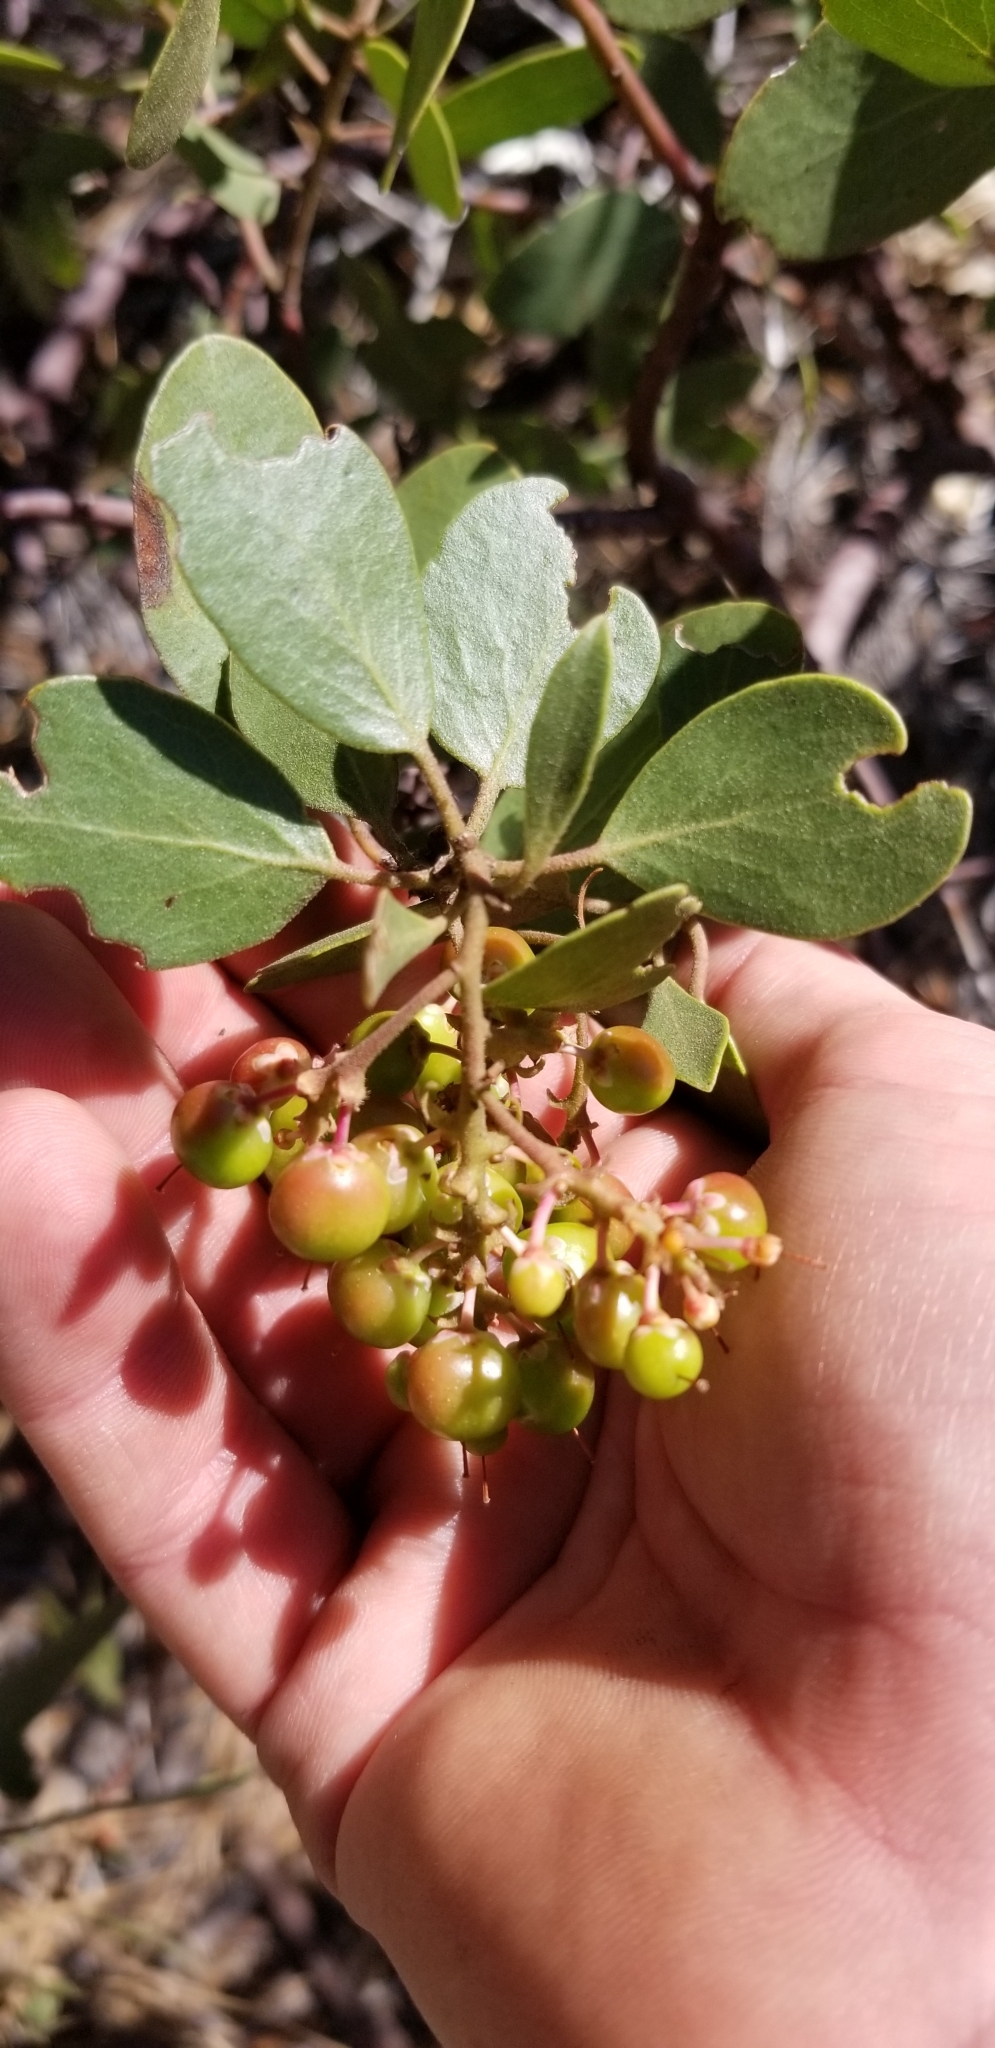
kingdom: Plantae
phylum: Tracheophyta
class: Magnoliopsida
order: Ericales
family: Ericaceae
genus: Arctostaphylos
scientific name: Arctostaphylos patula
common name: Green-leaf manzanita
